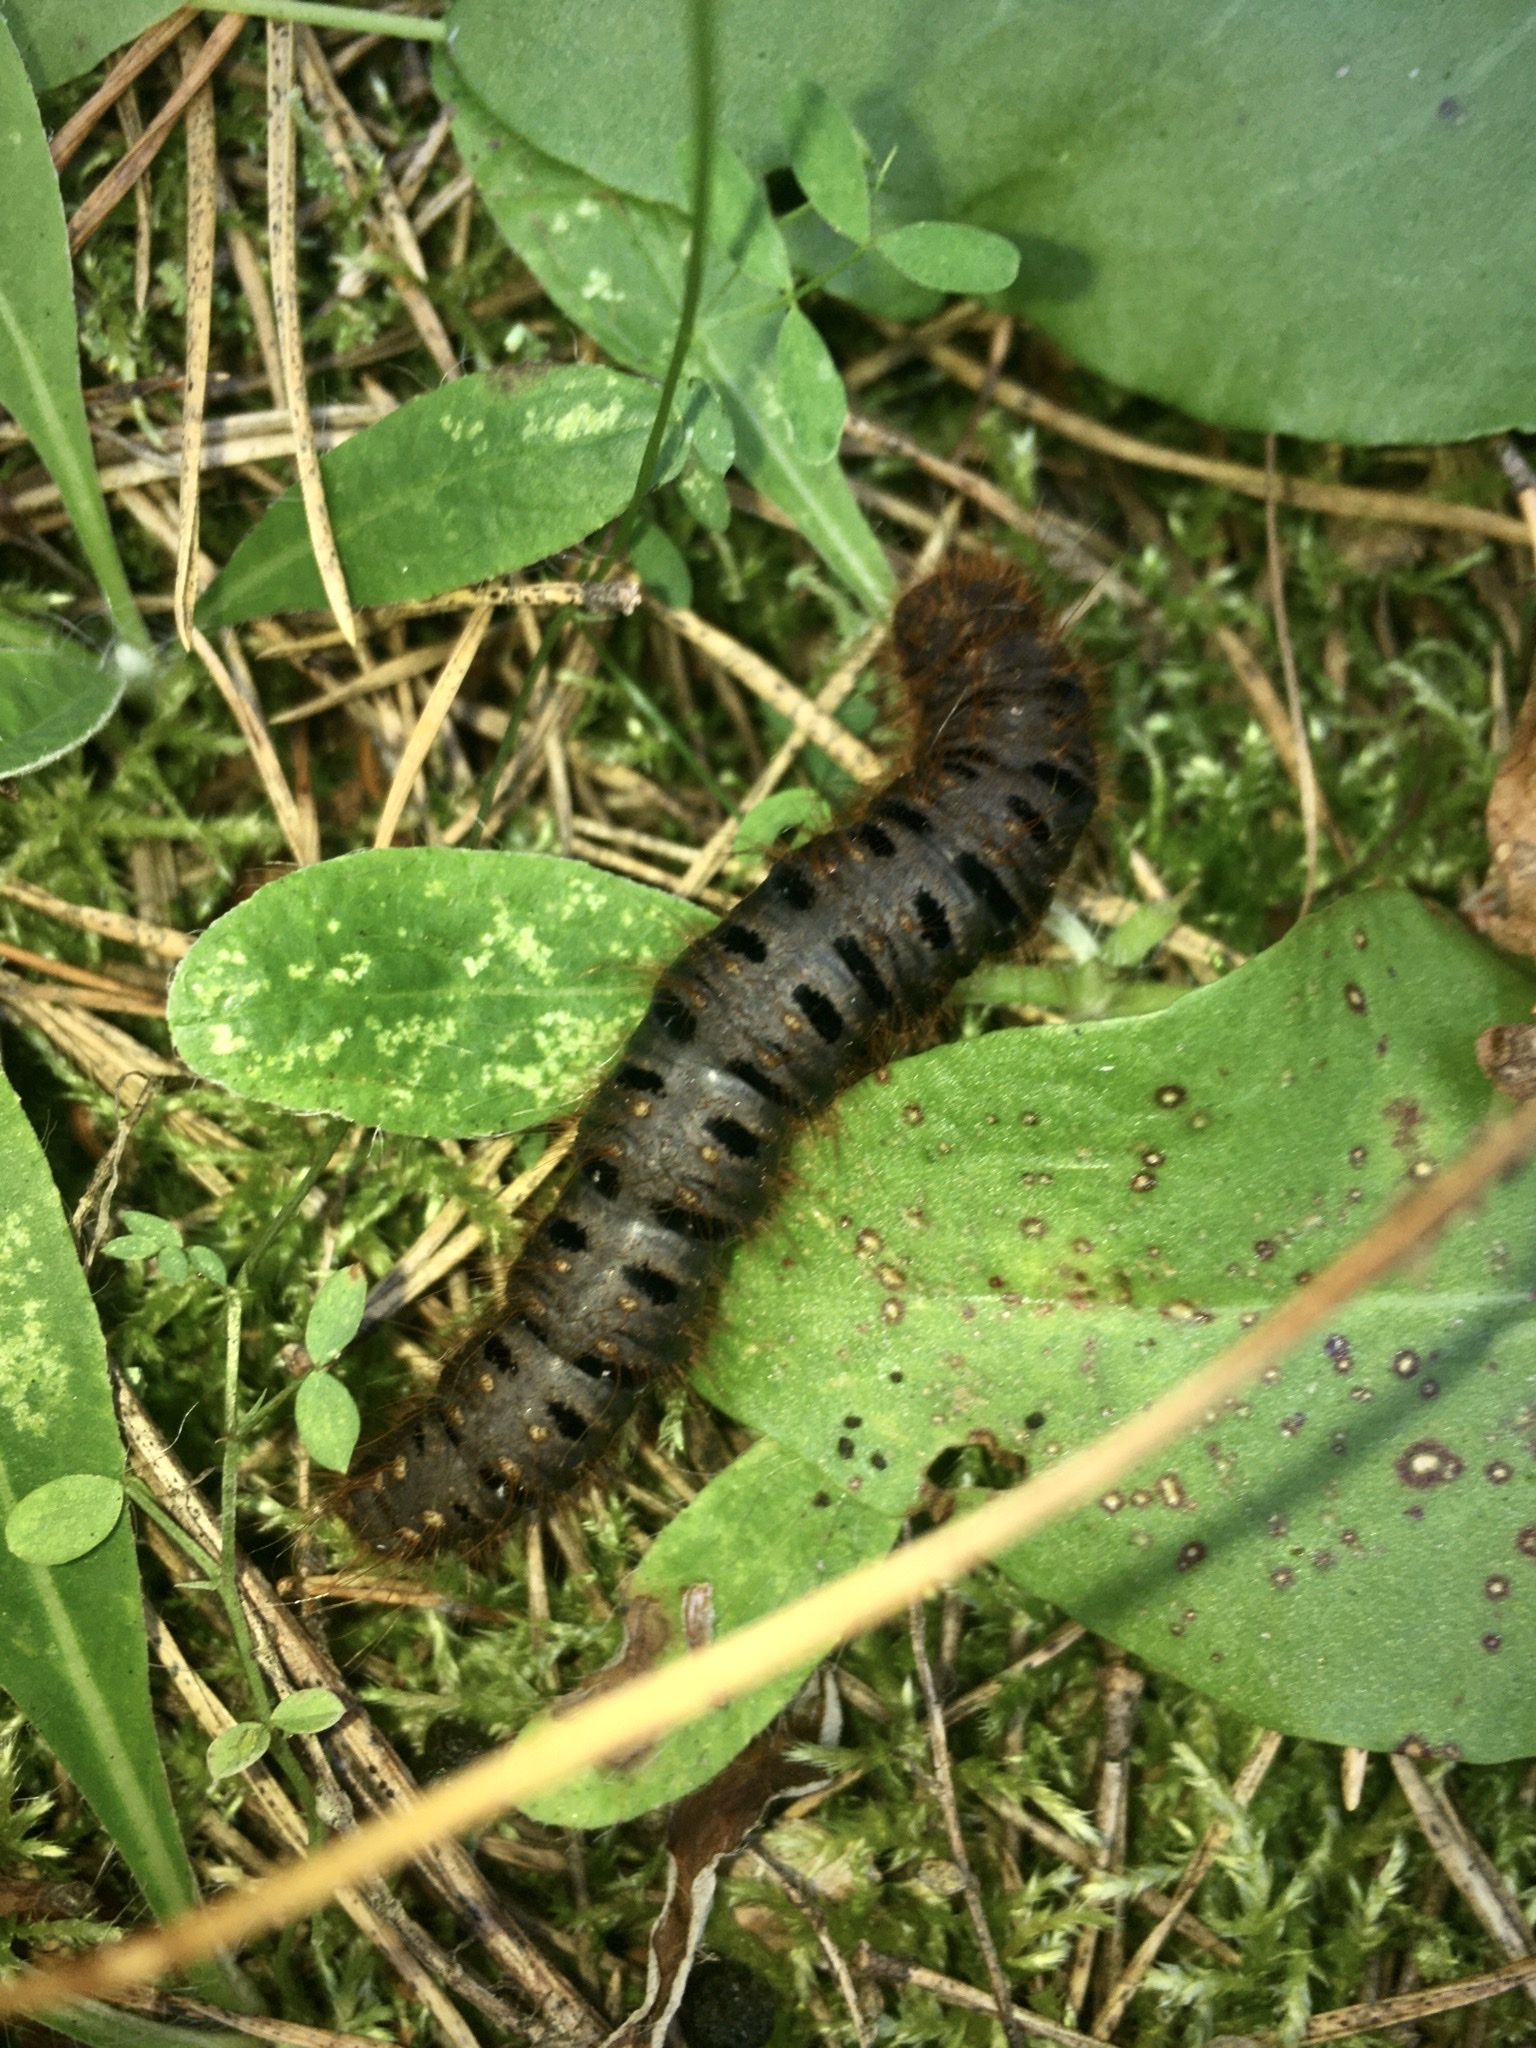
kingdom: Animalia
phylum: Arthropoda
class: Insecta
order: Lepidoptera
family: Brahmaeidae
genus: Lemonia
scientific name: Lemonia dumi
